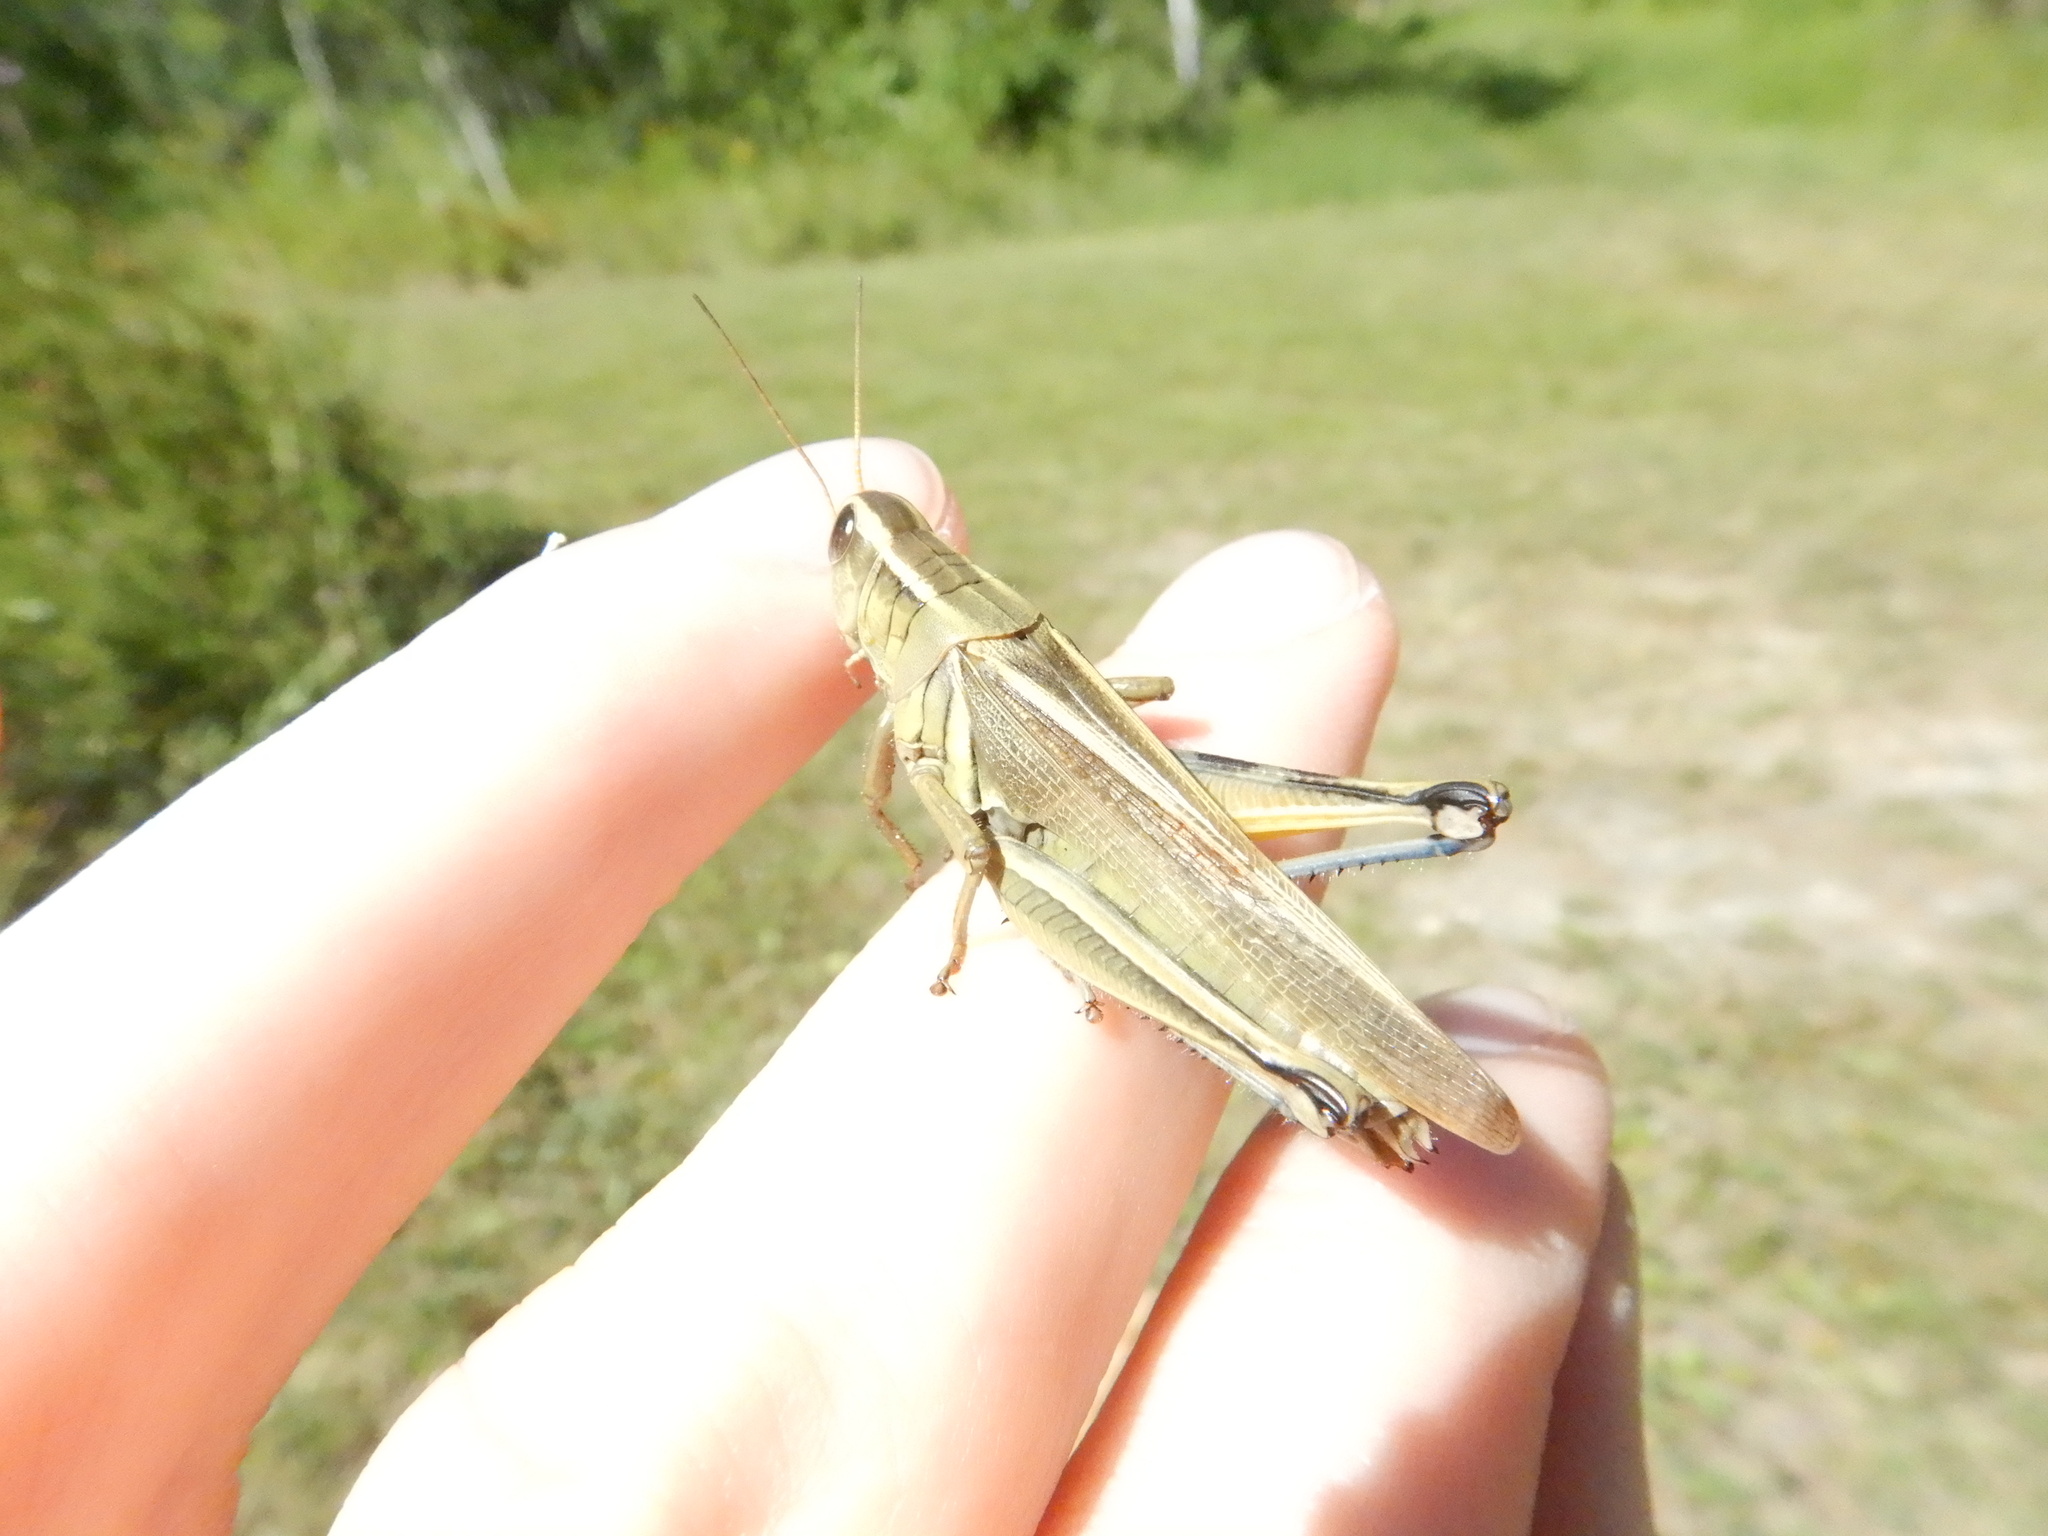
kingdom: Animalia
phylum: Arthropoda
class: Insecta
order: Orthoptera
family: Acrididae
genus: Melanoplus
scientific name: Melanoplus bivittatus
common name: Two-striped grasshopper
